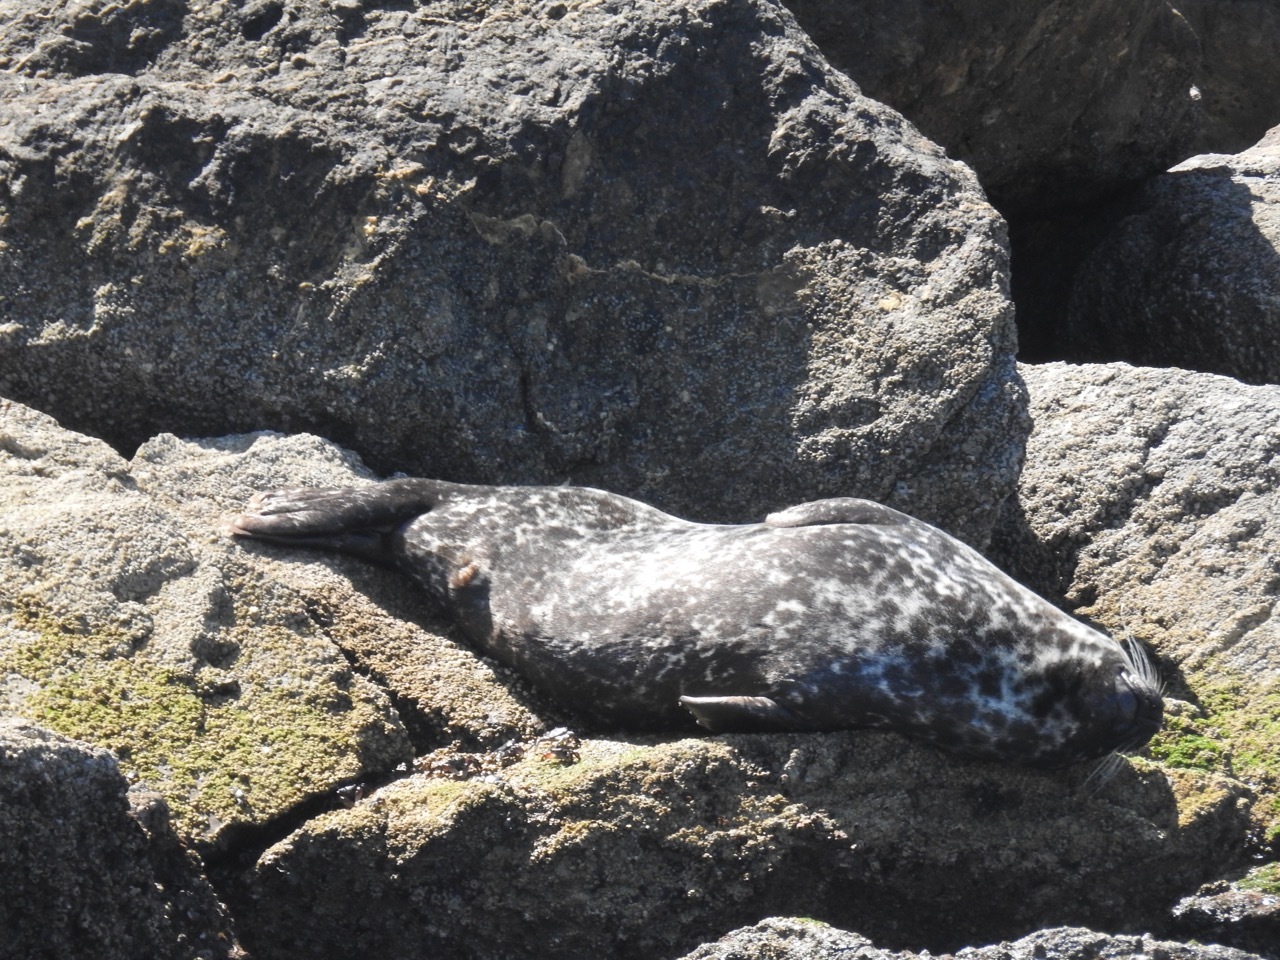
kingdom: Animalia
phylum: Chordata
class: Mammalia
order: Carnivora
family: Phocidae
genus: Phoca
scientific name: Phoca vitulina
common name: Harbor seal
